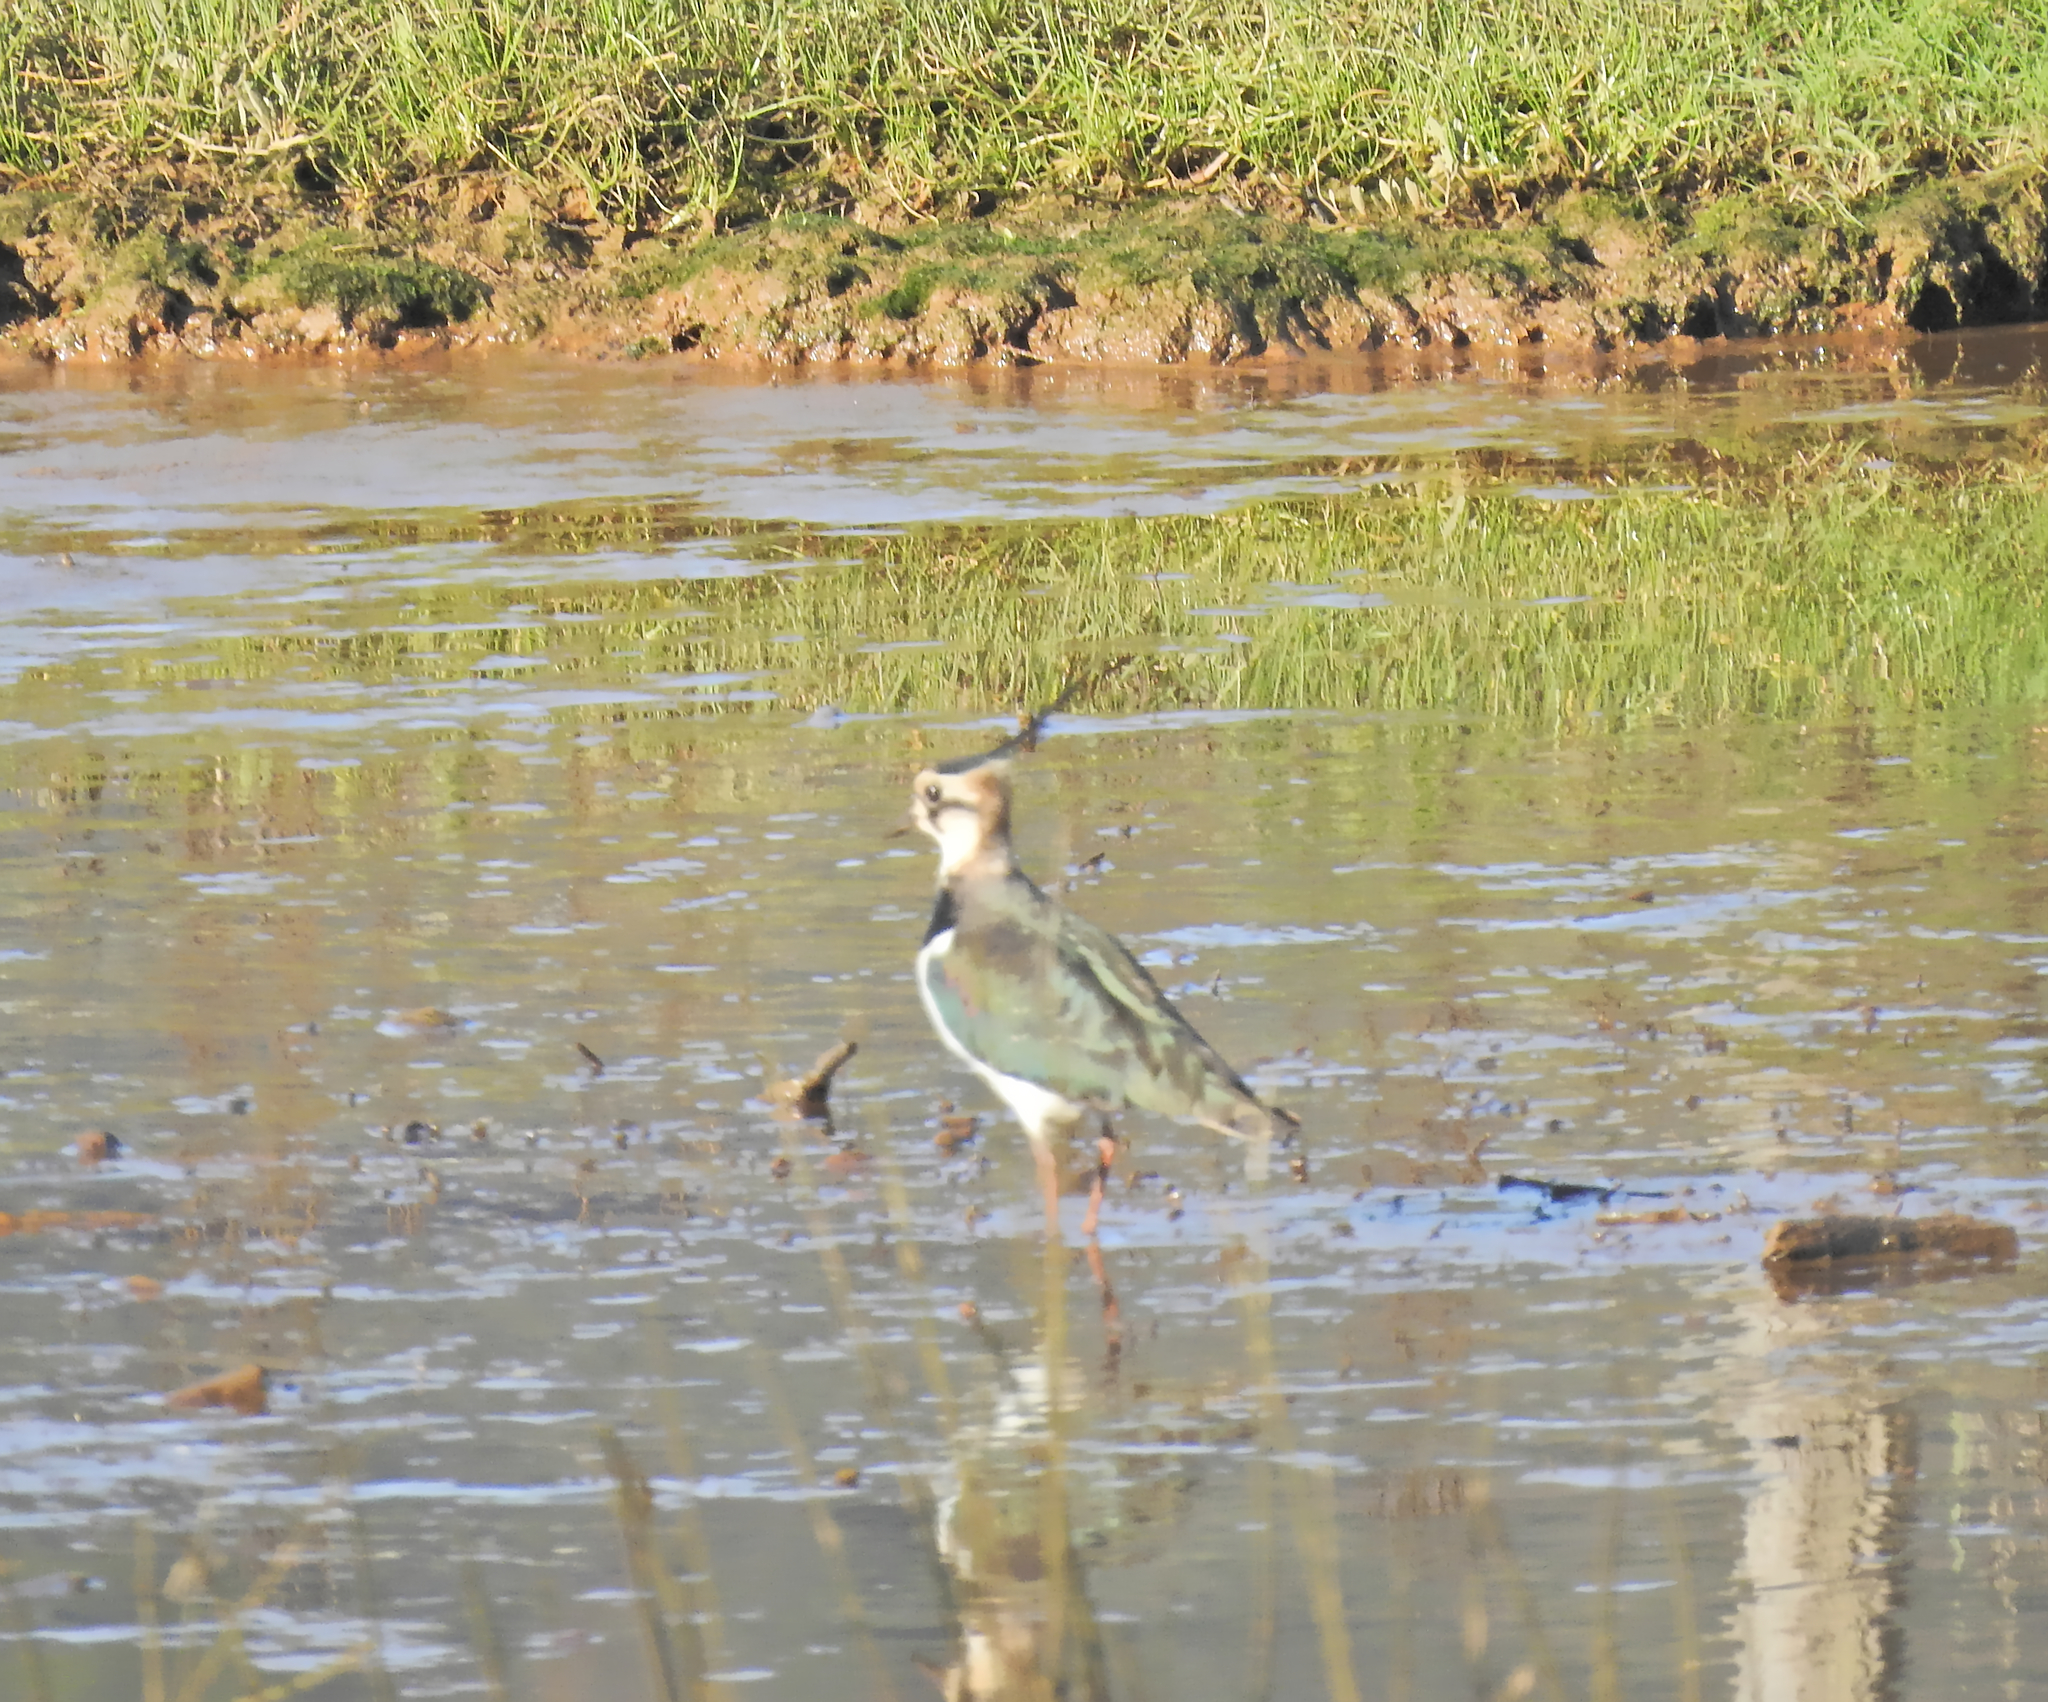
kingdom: Animalia
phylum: Chordata
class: Aves
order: Charadriiformes
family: Charadriidae
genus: Vanellus
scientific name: Vanellus vanellus
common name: Northern lapwing
